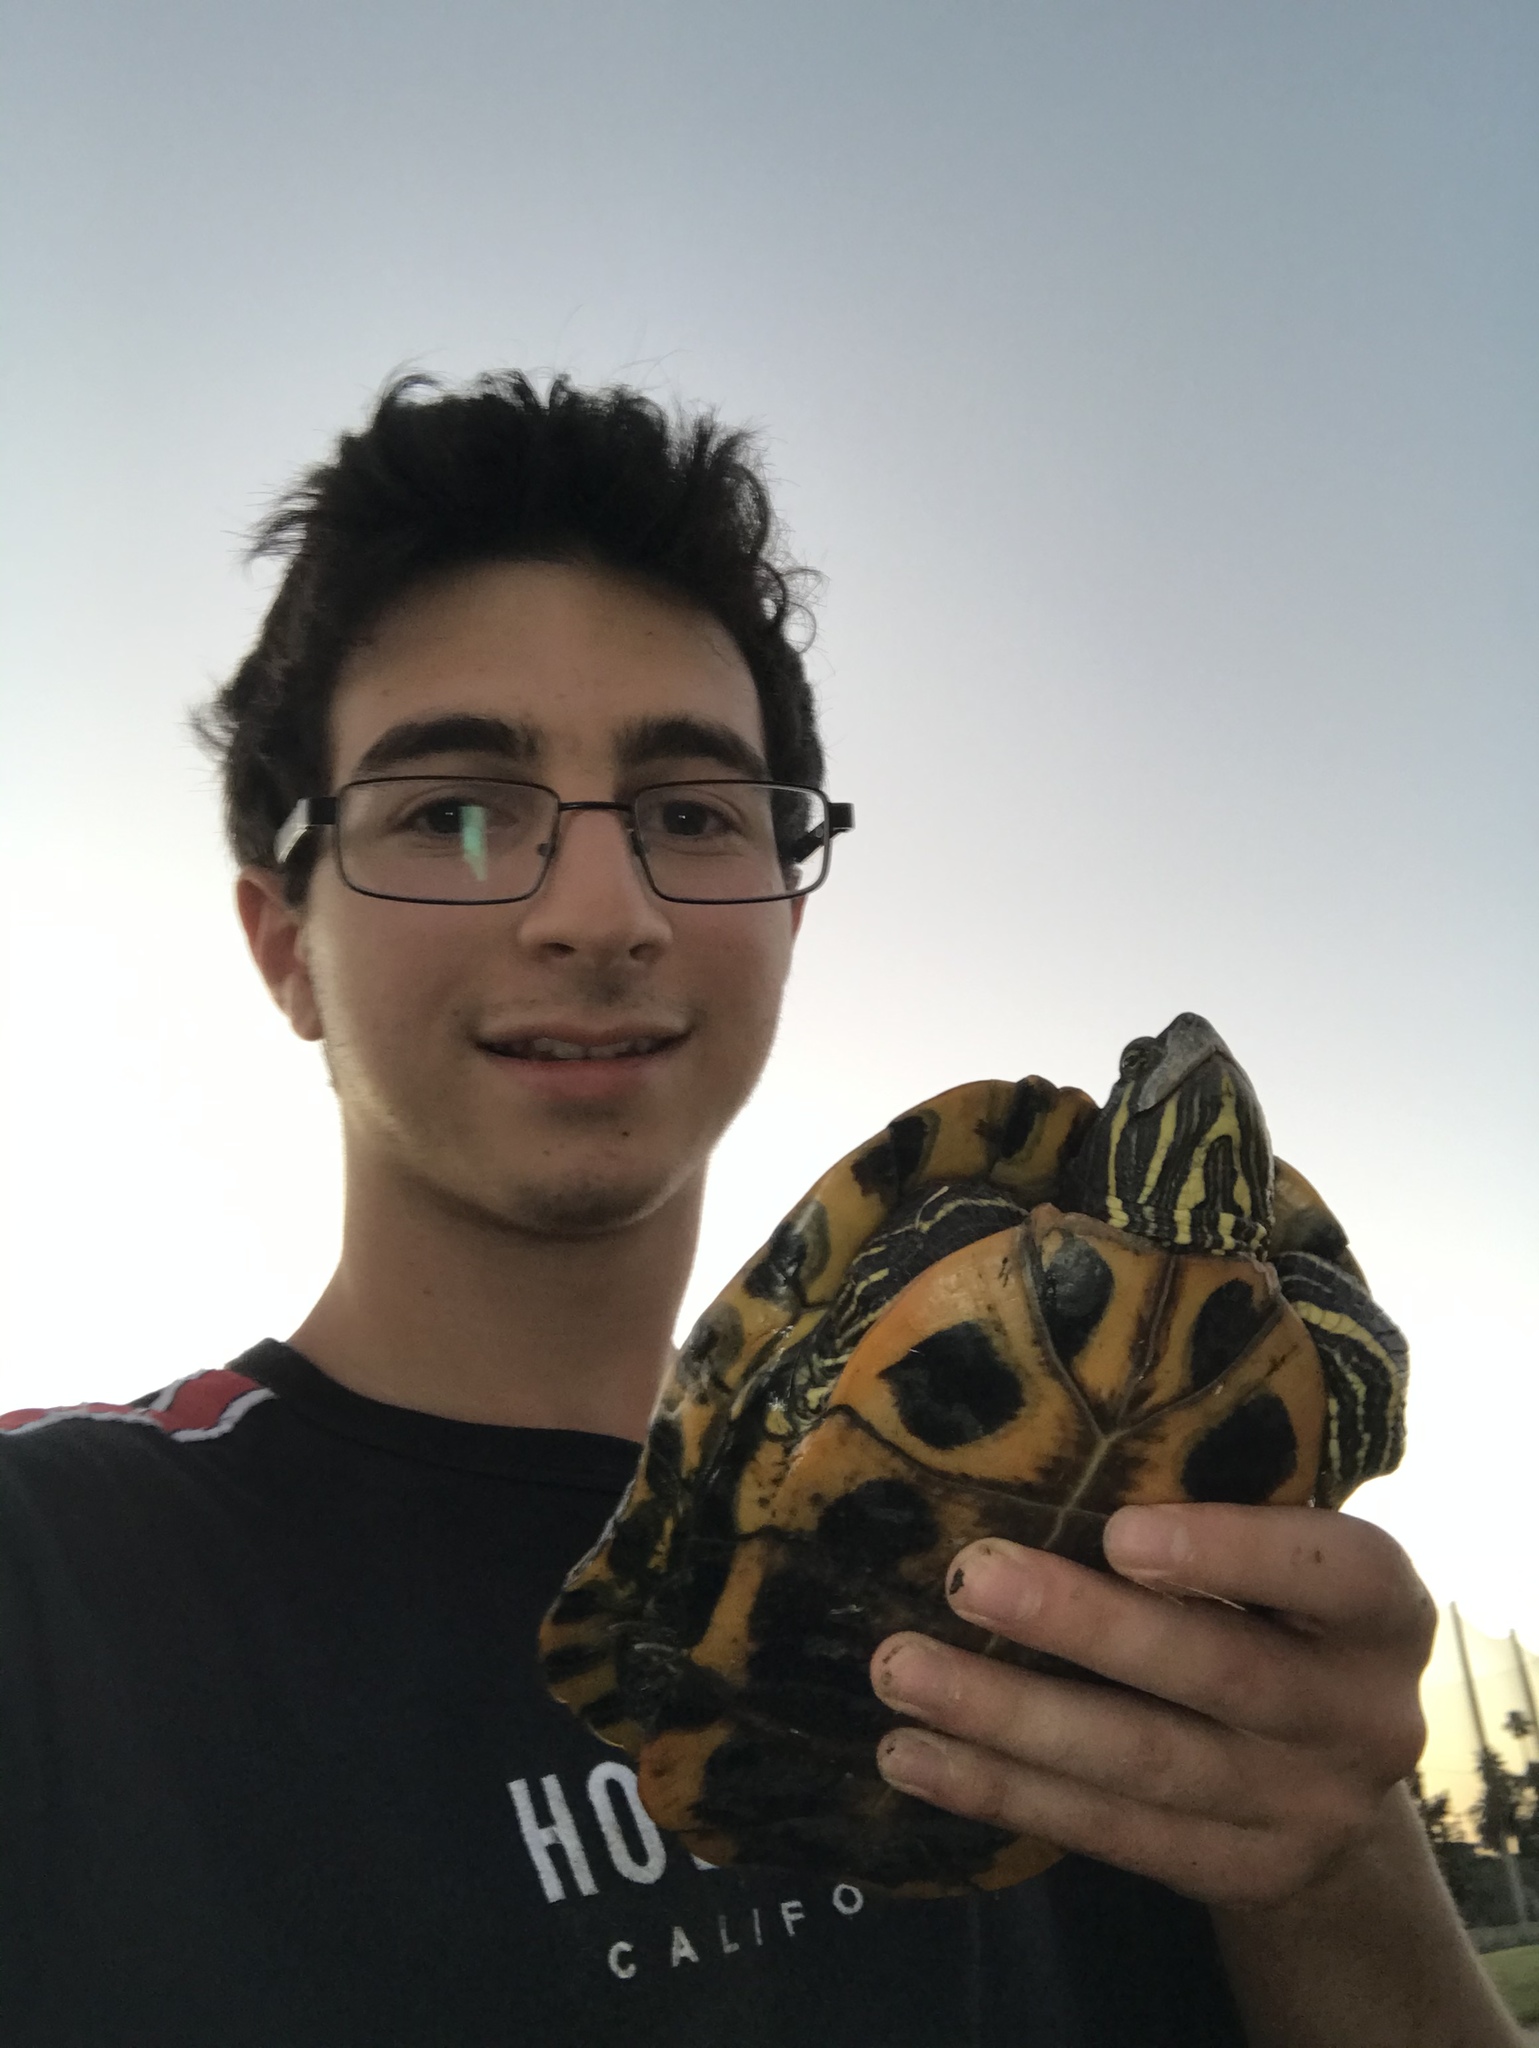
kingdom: Animalia
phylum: Chordata
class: Testudines
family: Emydidae
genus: Trachemys
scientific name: Trachemys scripta
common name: Slider
